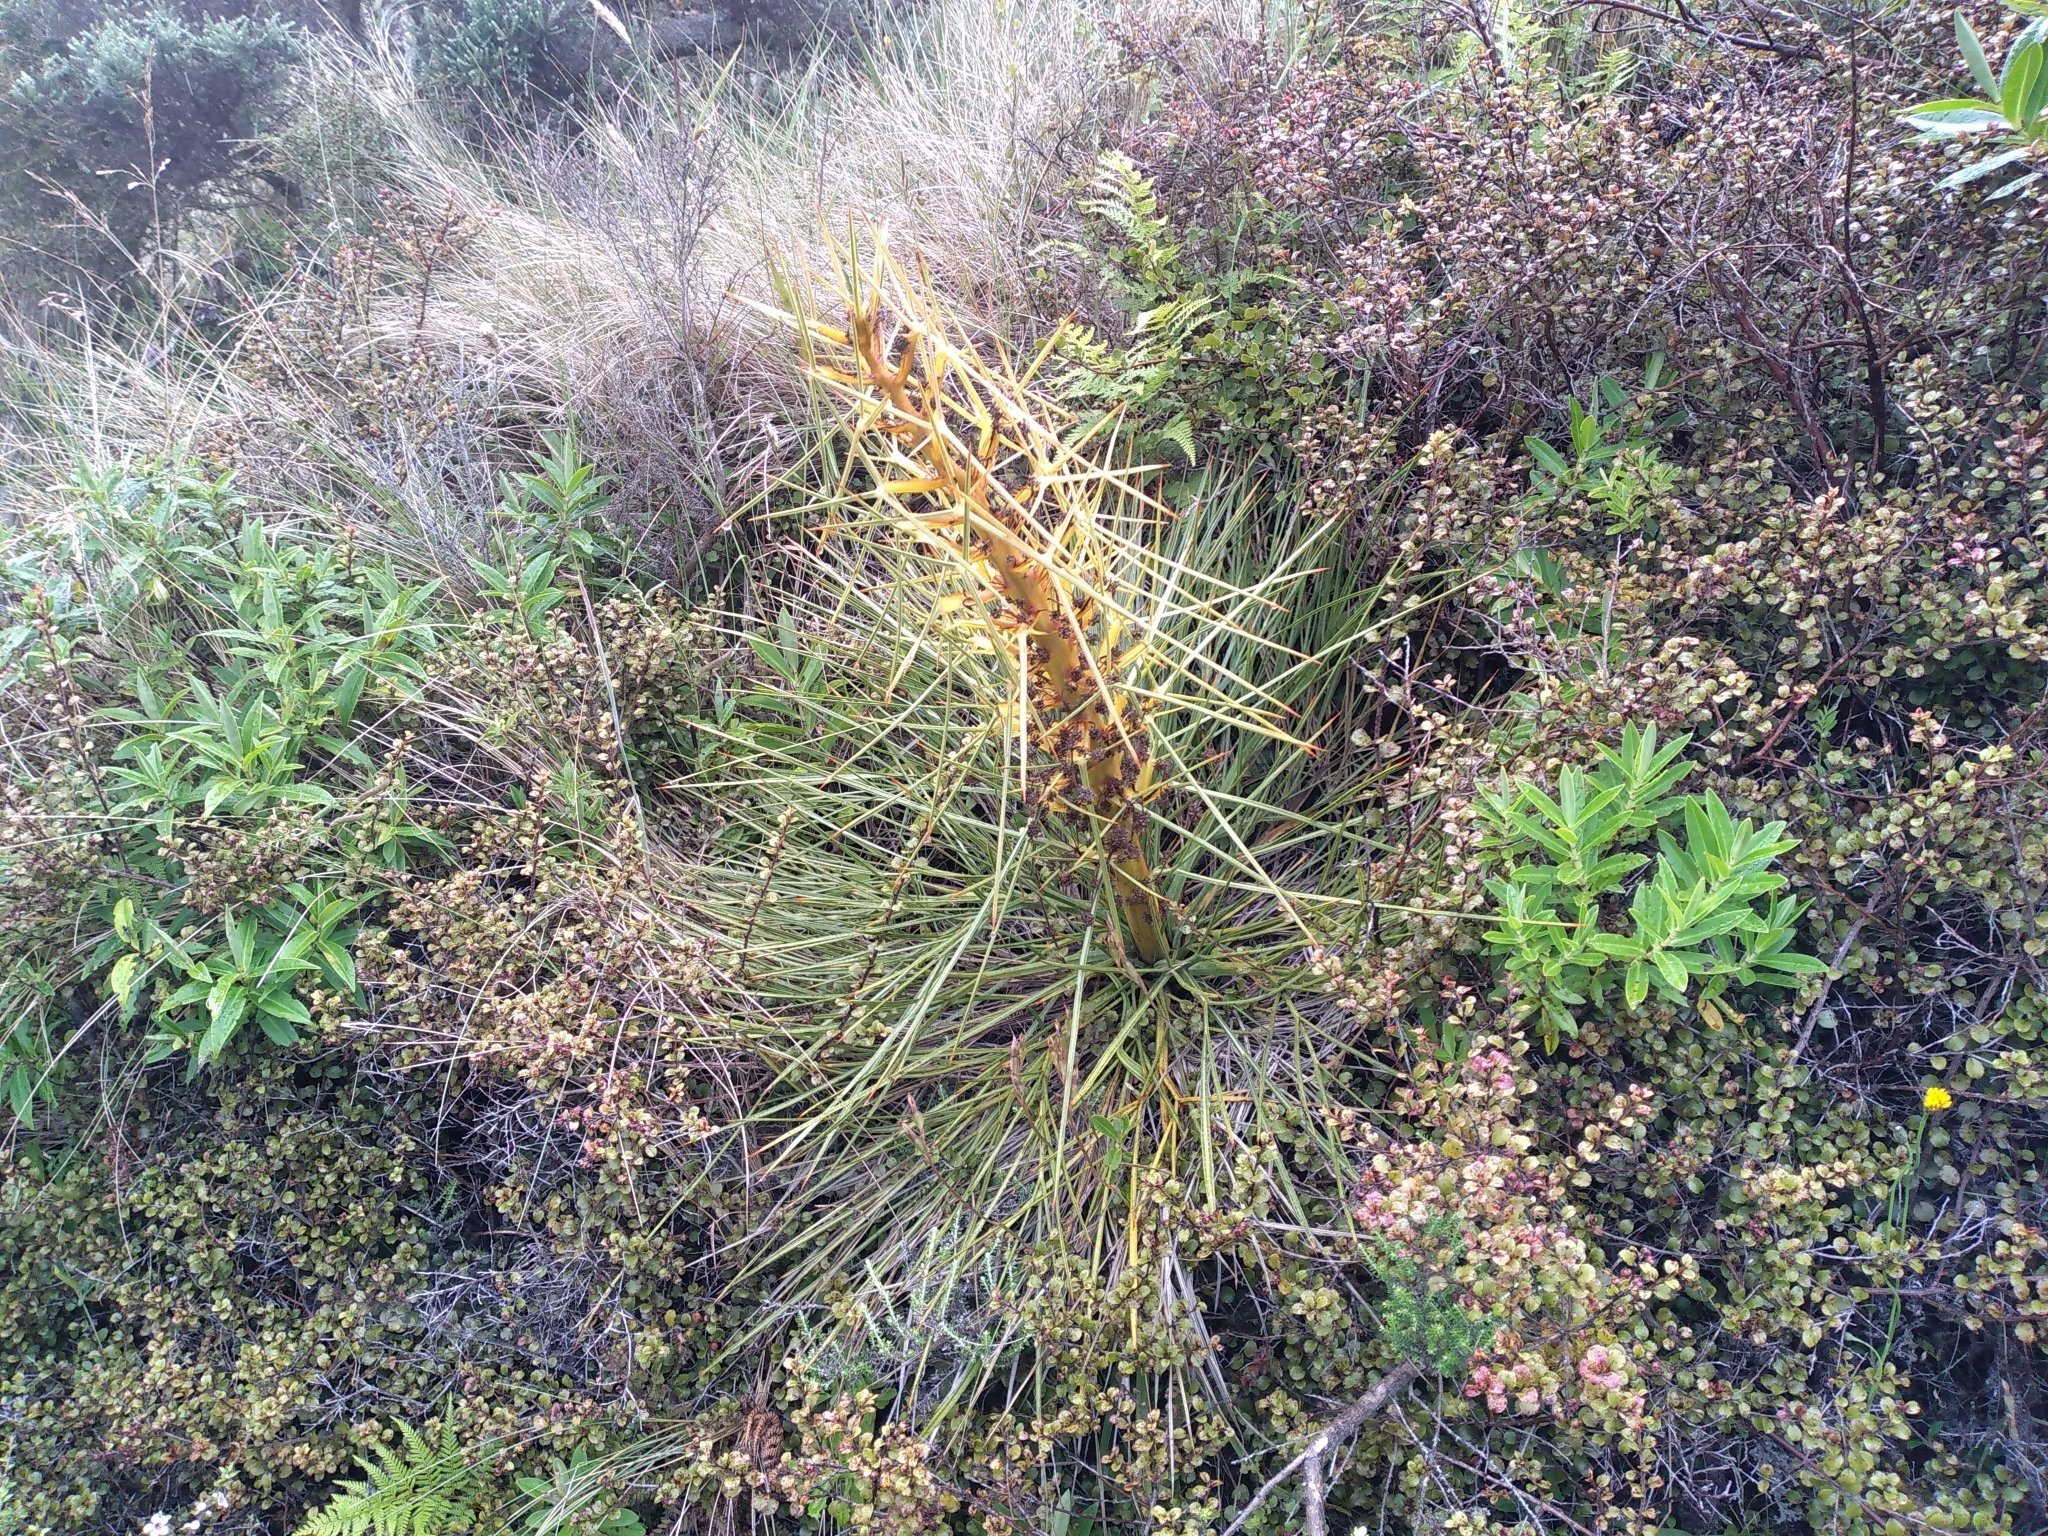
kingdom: Plantae
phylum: Tracheophyta
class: Magnoliopsida
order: Apiales
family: Apiaceae
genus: Aciphylla
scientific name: Aciphylla squarrosa
